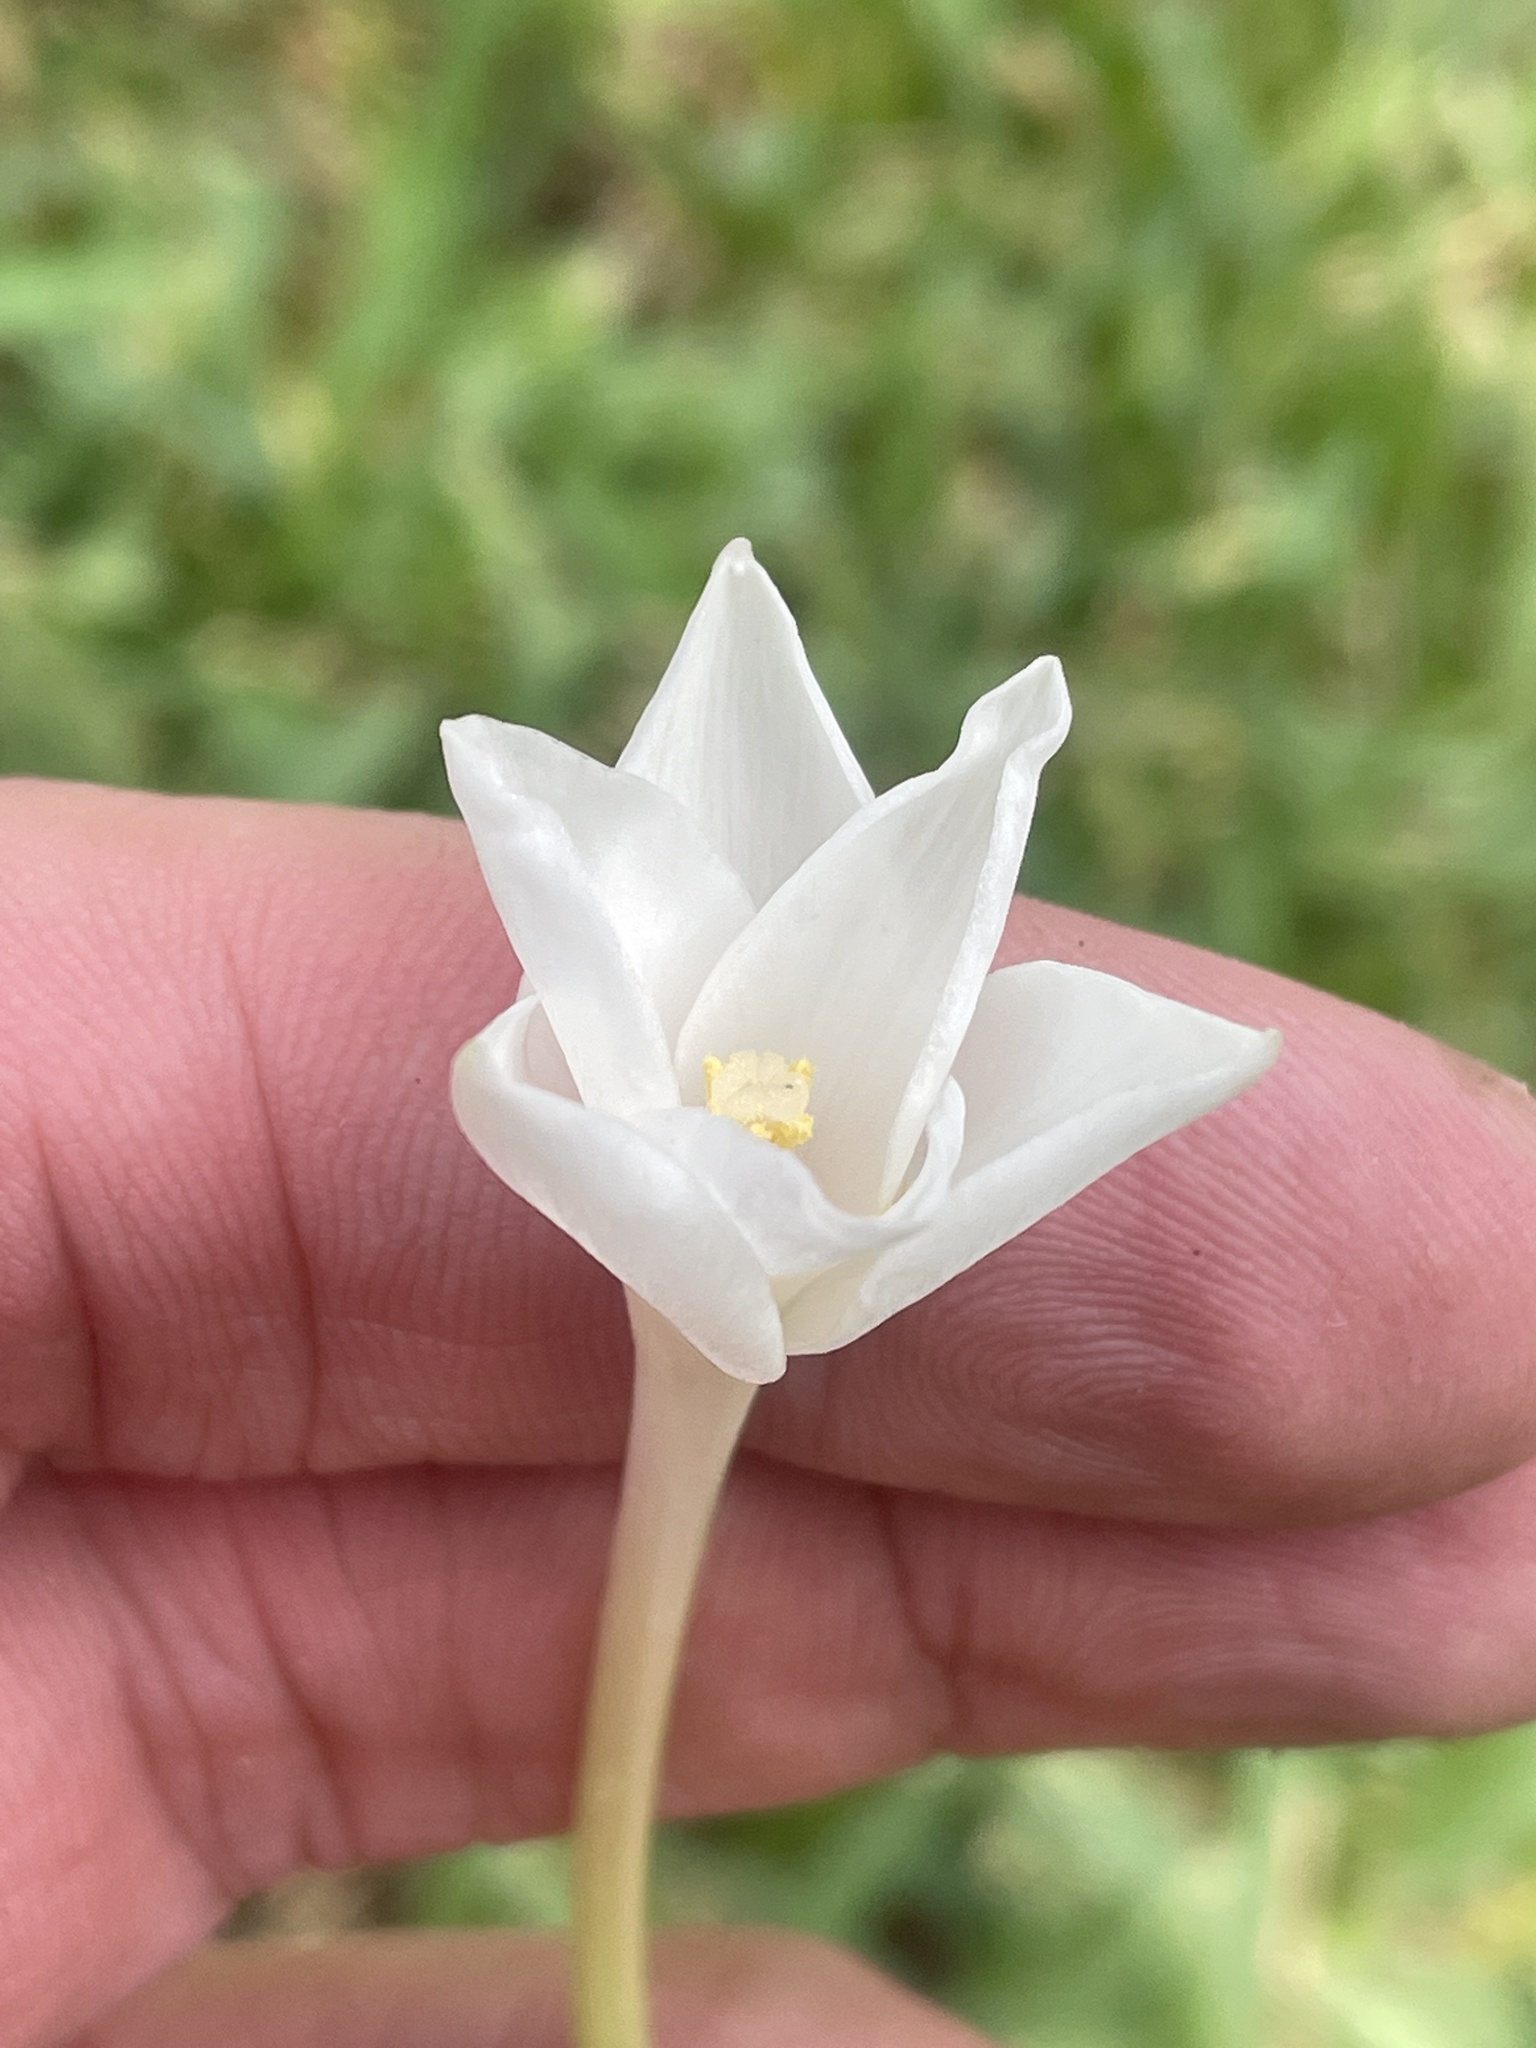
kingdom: Plantae
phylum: Tracheophyta
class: Liliopsida
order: Asparagales
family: Amaryllidaceae
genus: Zephyranthes
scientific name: Zephyranthes chlorosolen
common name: Evening rain-lily
